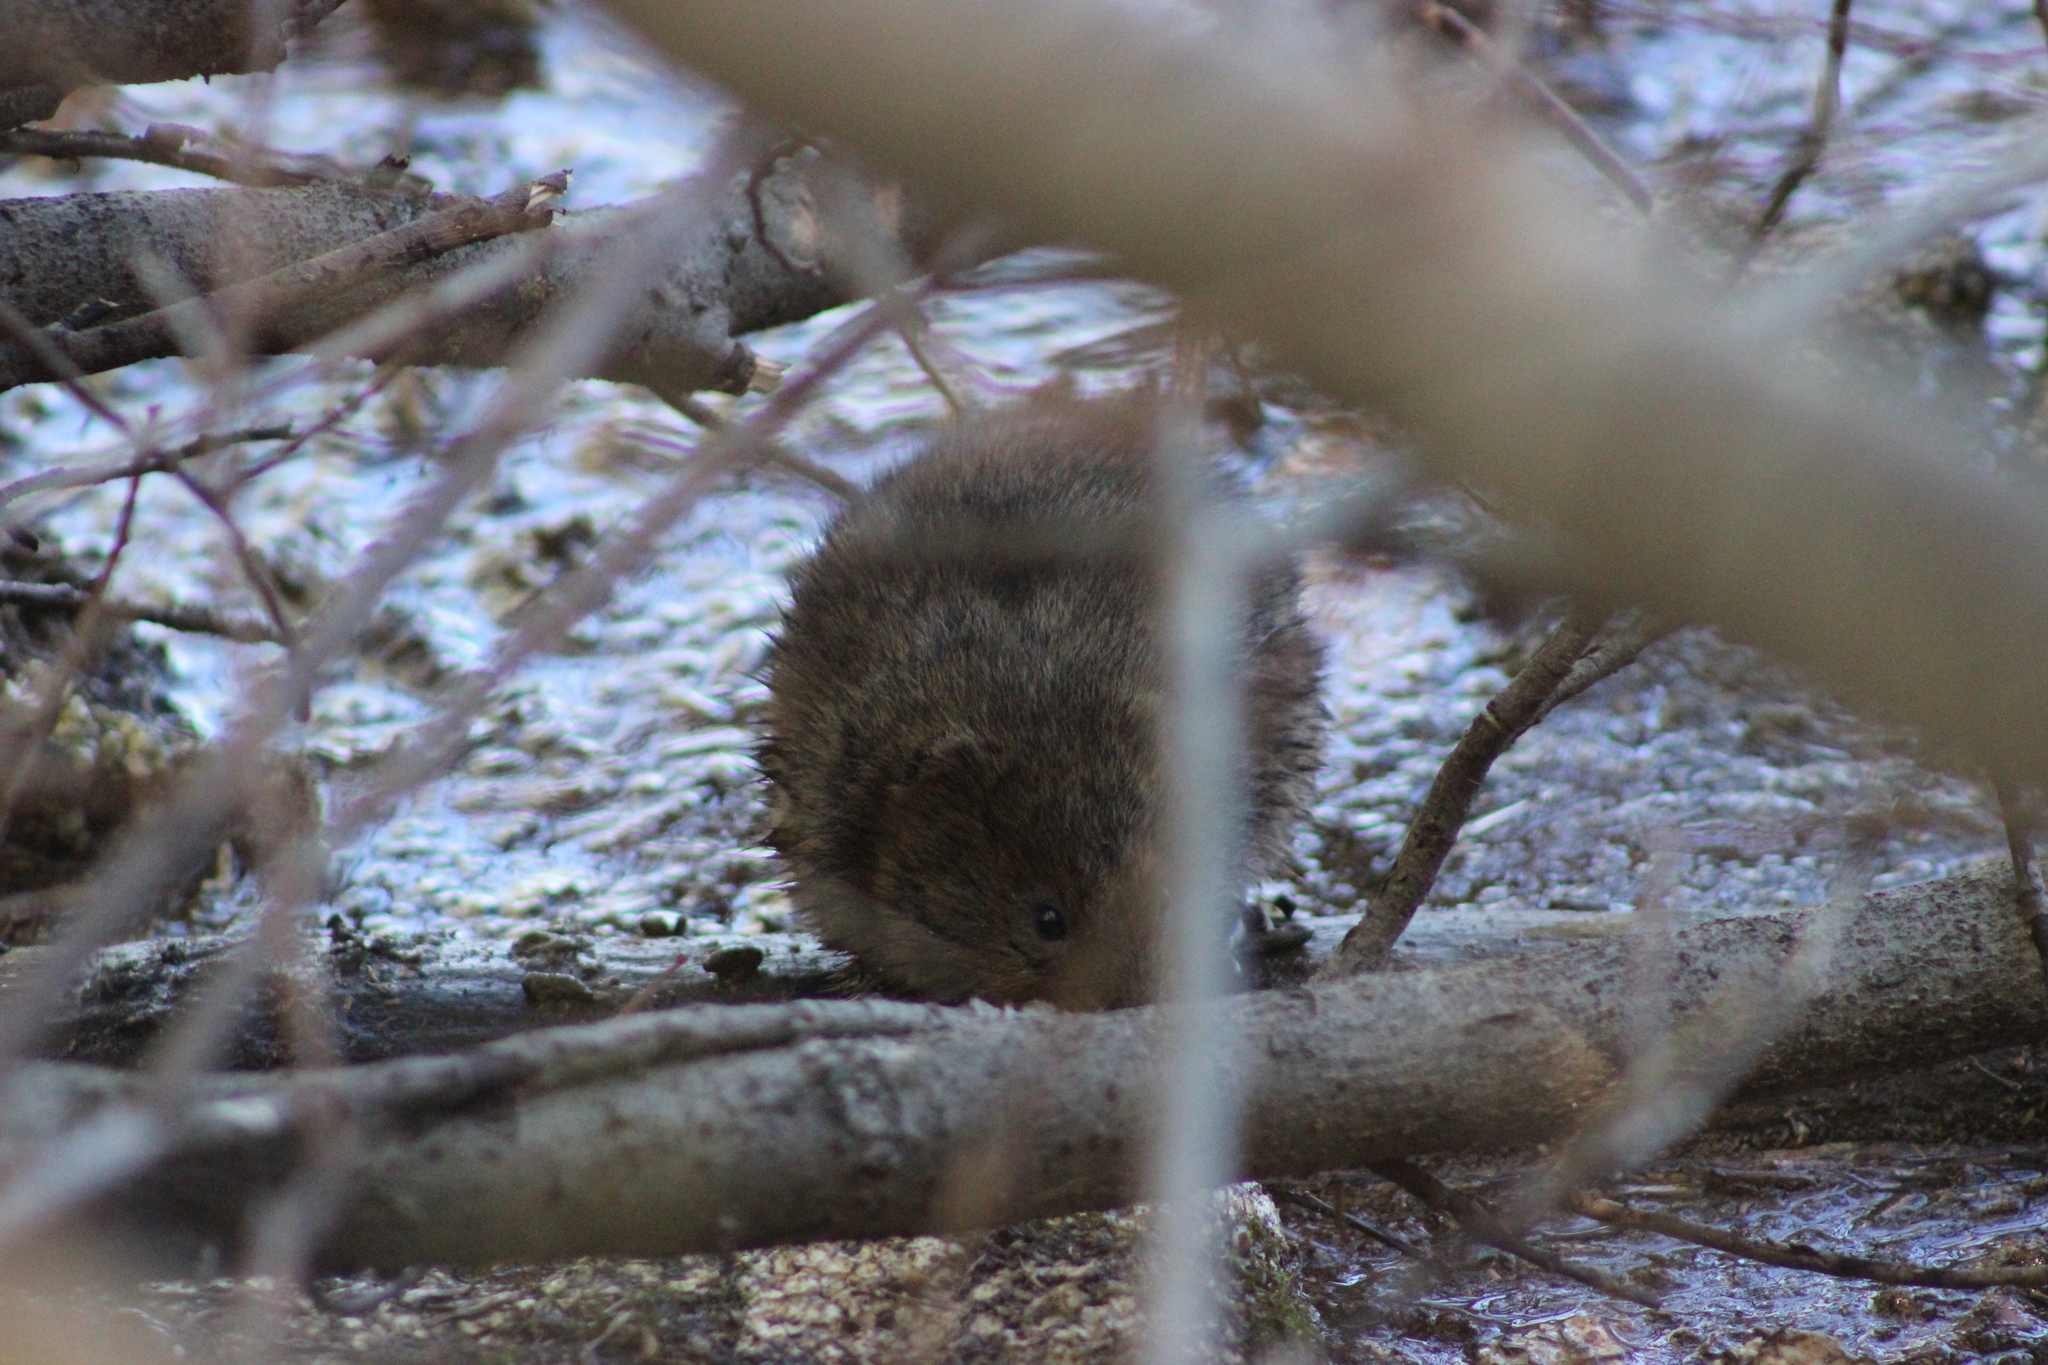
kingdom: Animalia
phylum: Chordata
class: Mammalia
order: Rodentia
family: Cricetidae
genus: Arvicola
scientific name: Arvicola amphibius
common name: European water vole
